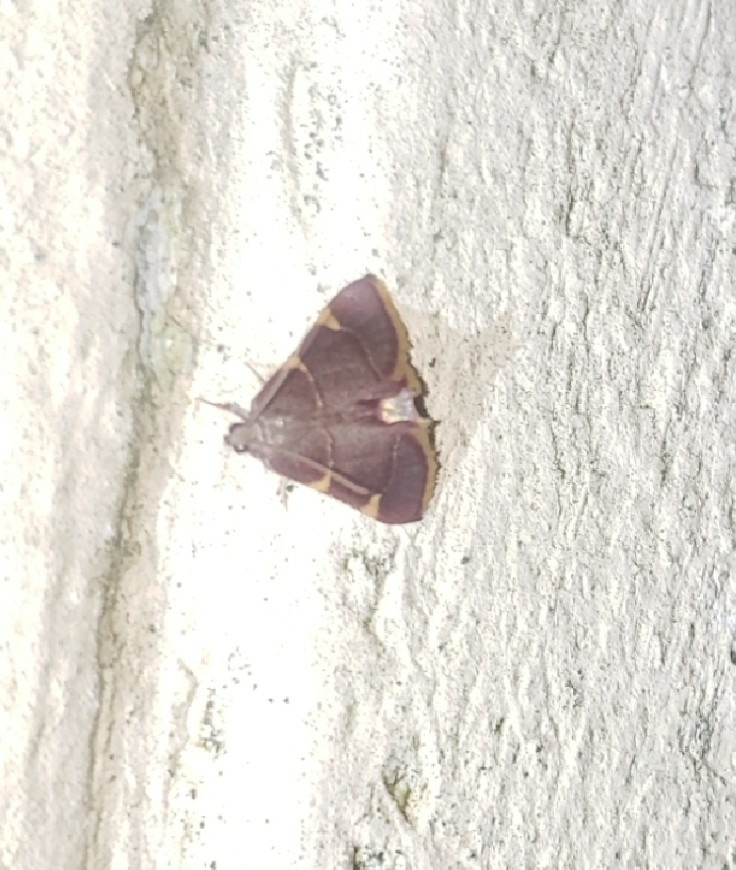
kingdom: Animalia
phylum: Arthropoda
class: Insecta
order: Lepidoptera
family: Pyralidae
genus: Hypsopygia
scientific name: Hypsopygia olinalis
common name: Yellow-fringed dolichomia moth
